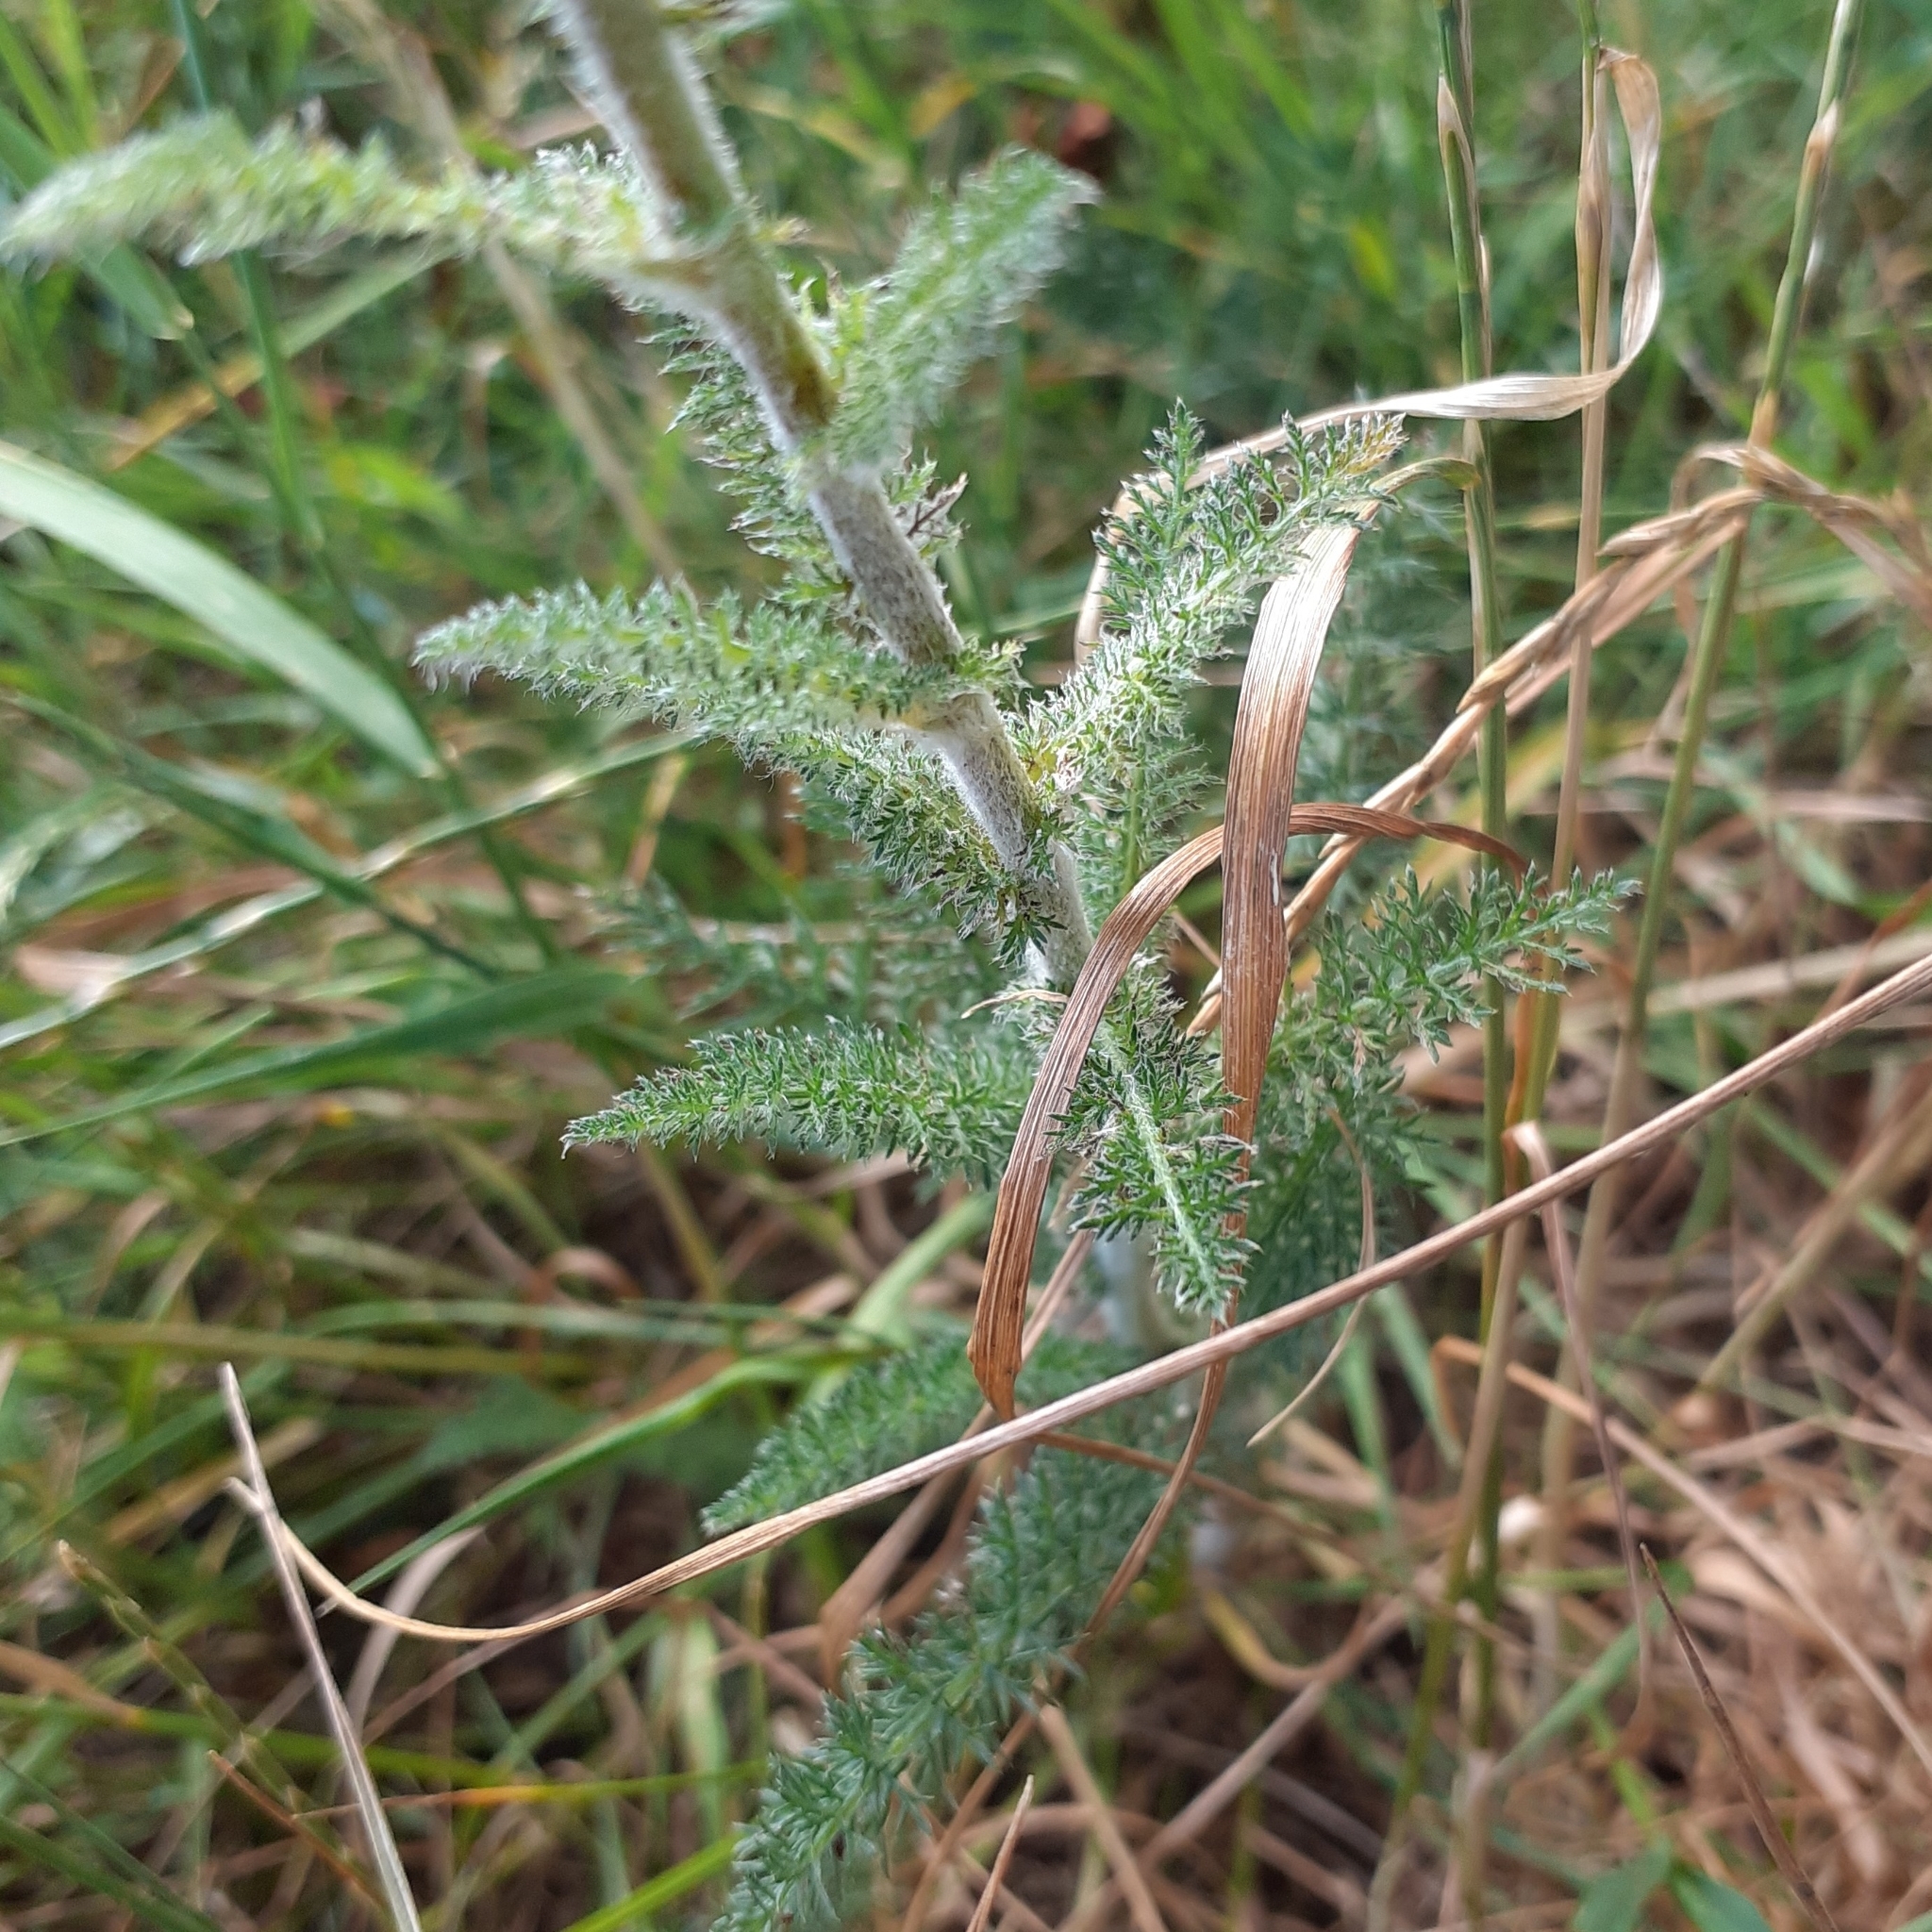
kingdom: Plantae
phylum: Tracheophyta
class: Magnoliopsida
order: Asterales
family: Asteraceae
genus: Achillea
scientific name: Achillea millefolium
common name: Yarrow
